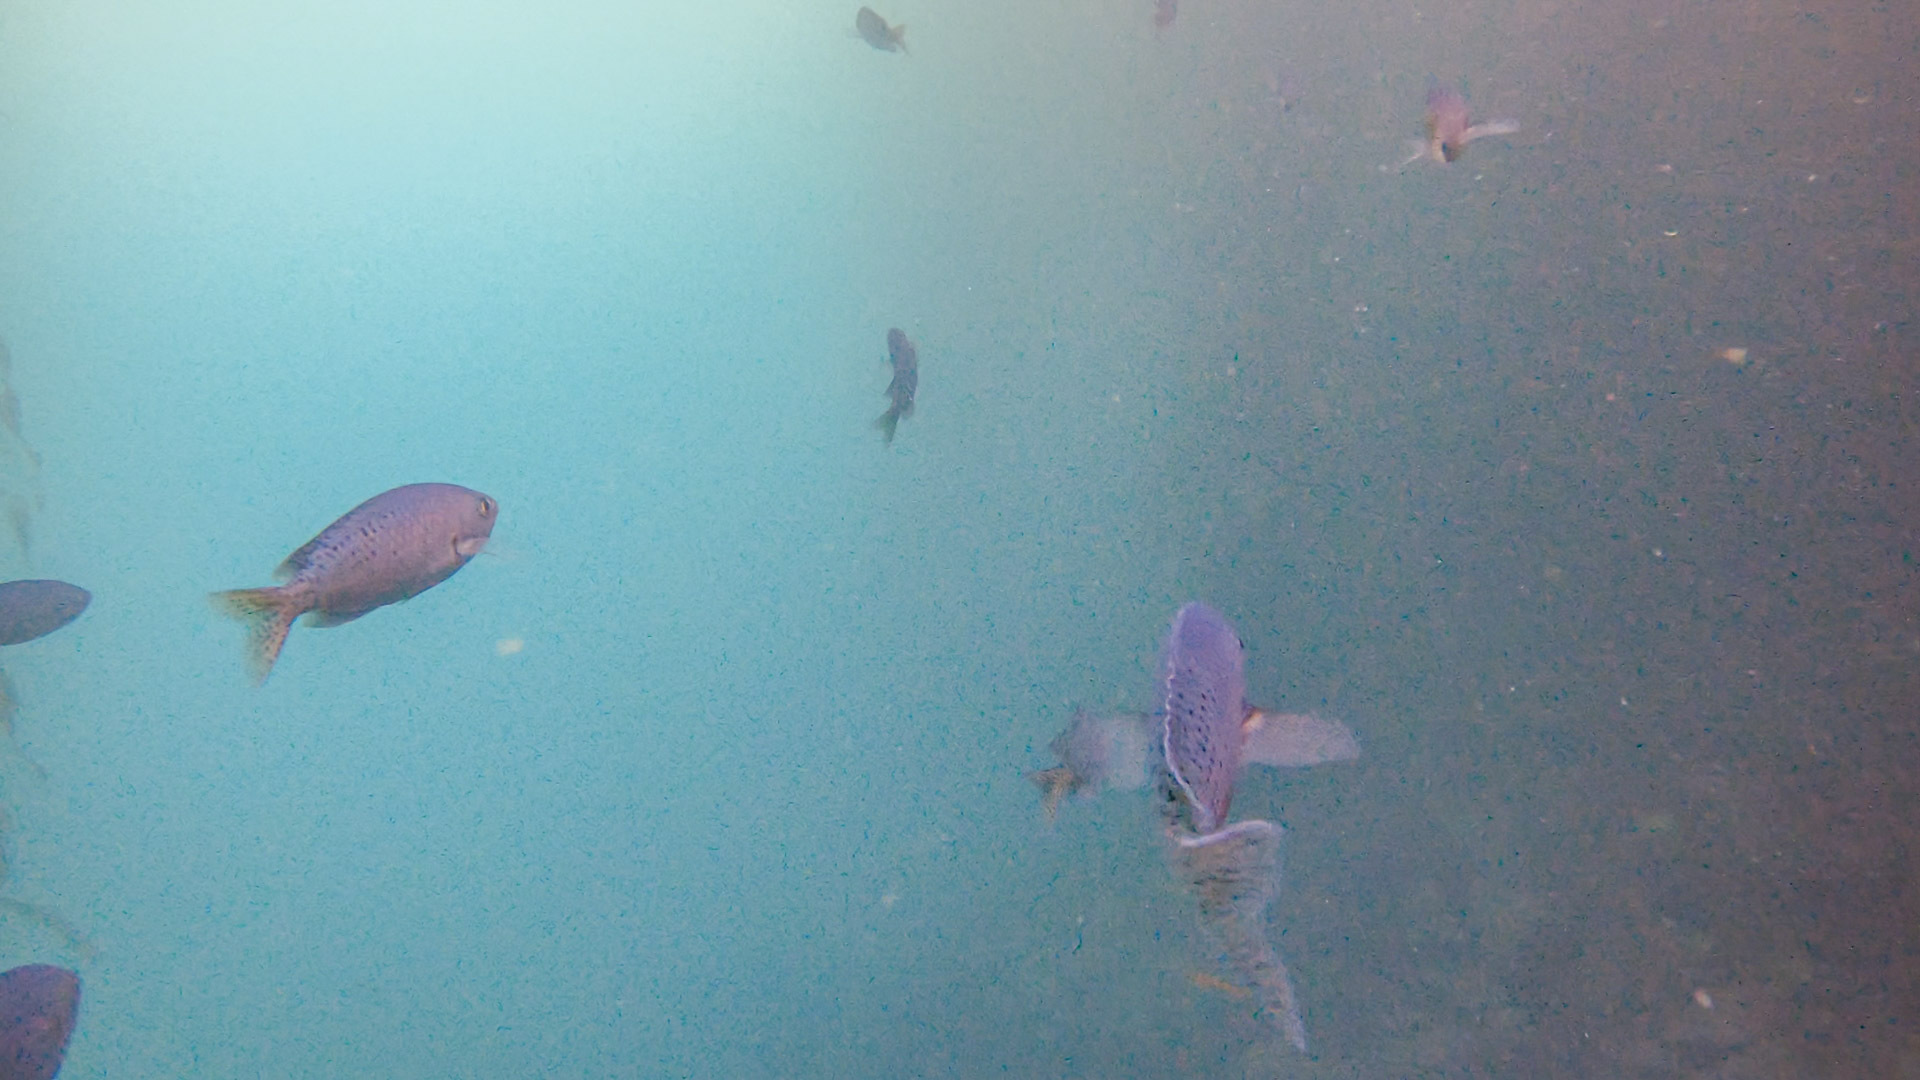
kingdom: Animalia
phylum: Chordata
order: Perciformes
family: Pomacentridae
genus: Chromis
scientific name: Chromis punctipinnis
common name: Blacksmith
